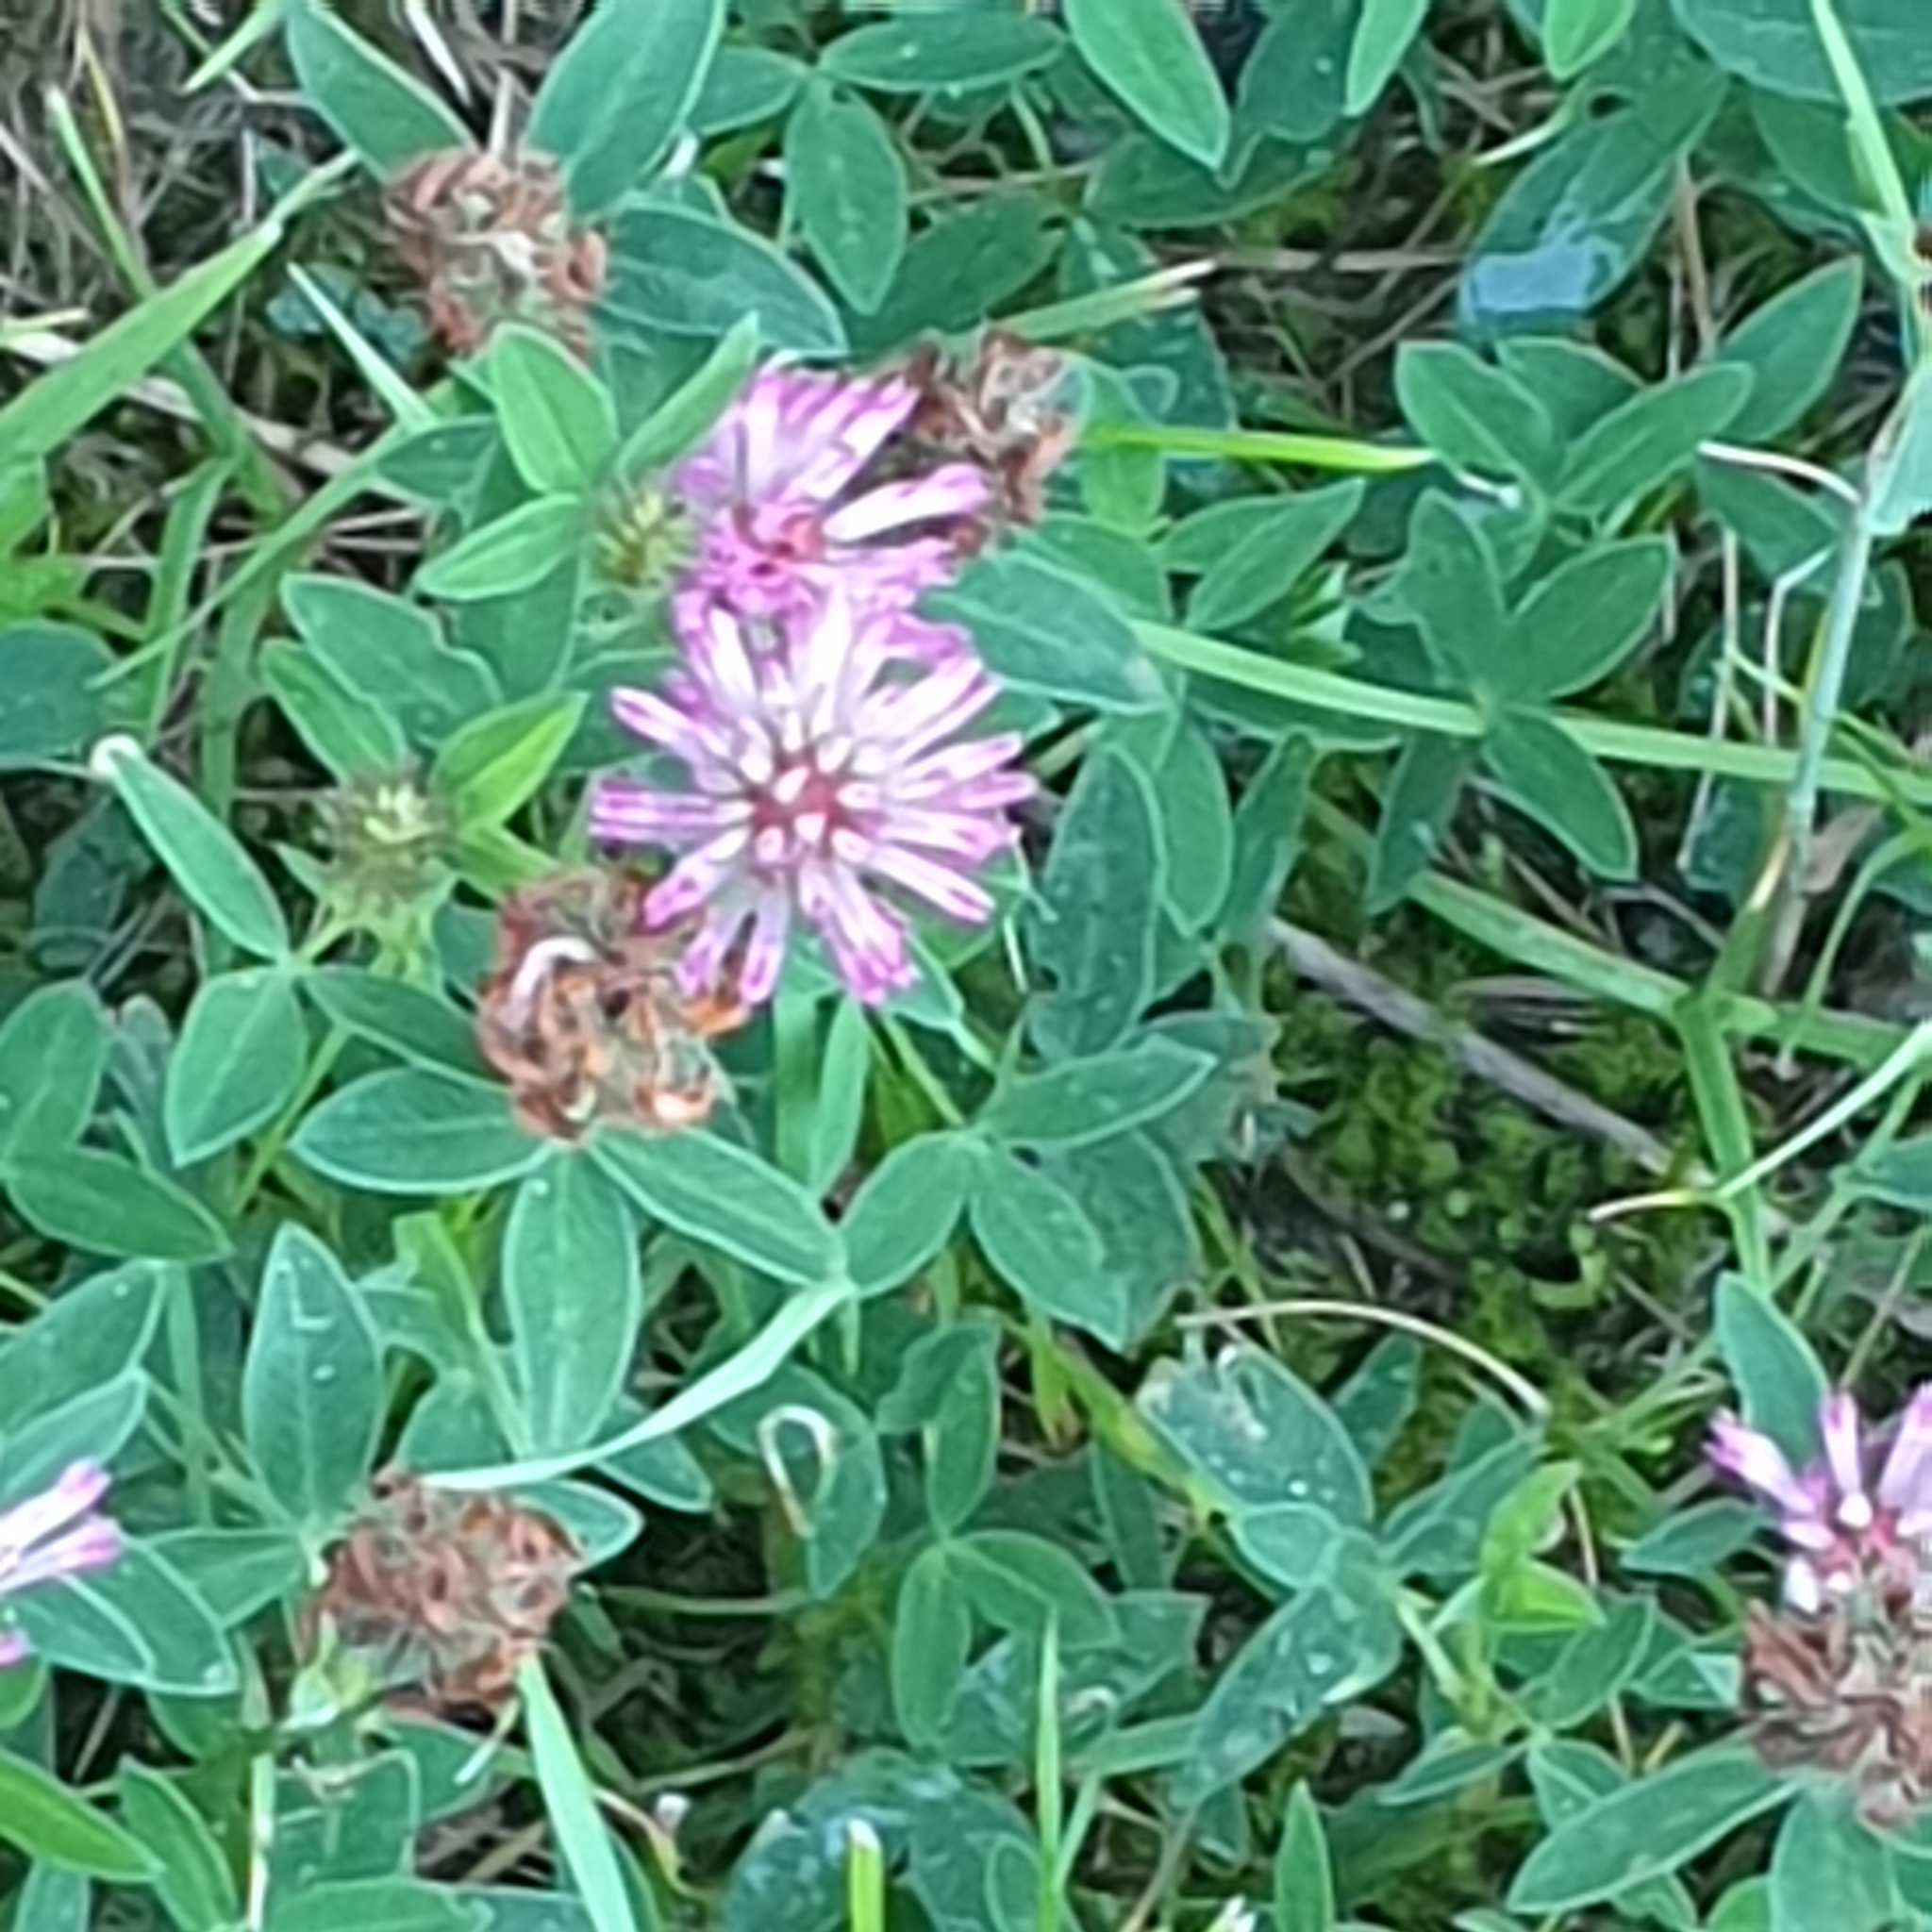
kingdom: Plantae
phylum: Tracheophyta
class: Magnoliopsida
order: Fabales
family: Fabaceae
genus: Trifolium
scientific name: Trifolium medium
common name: Zigzag clover
